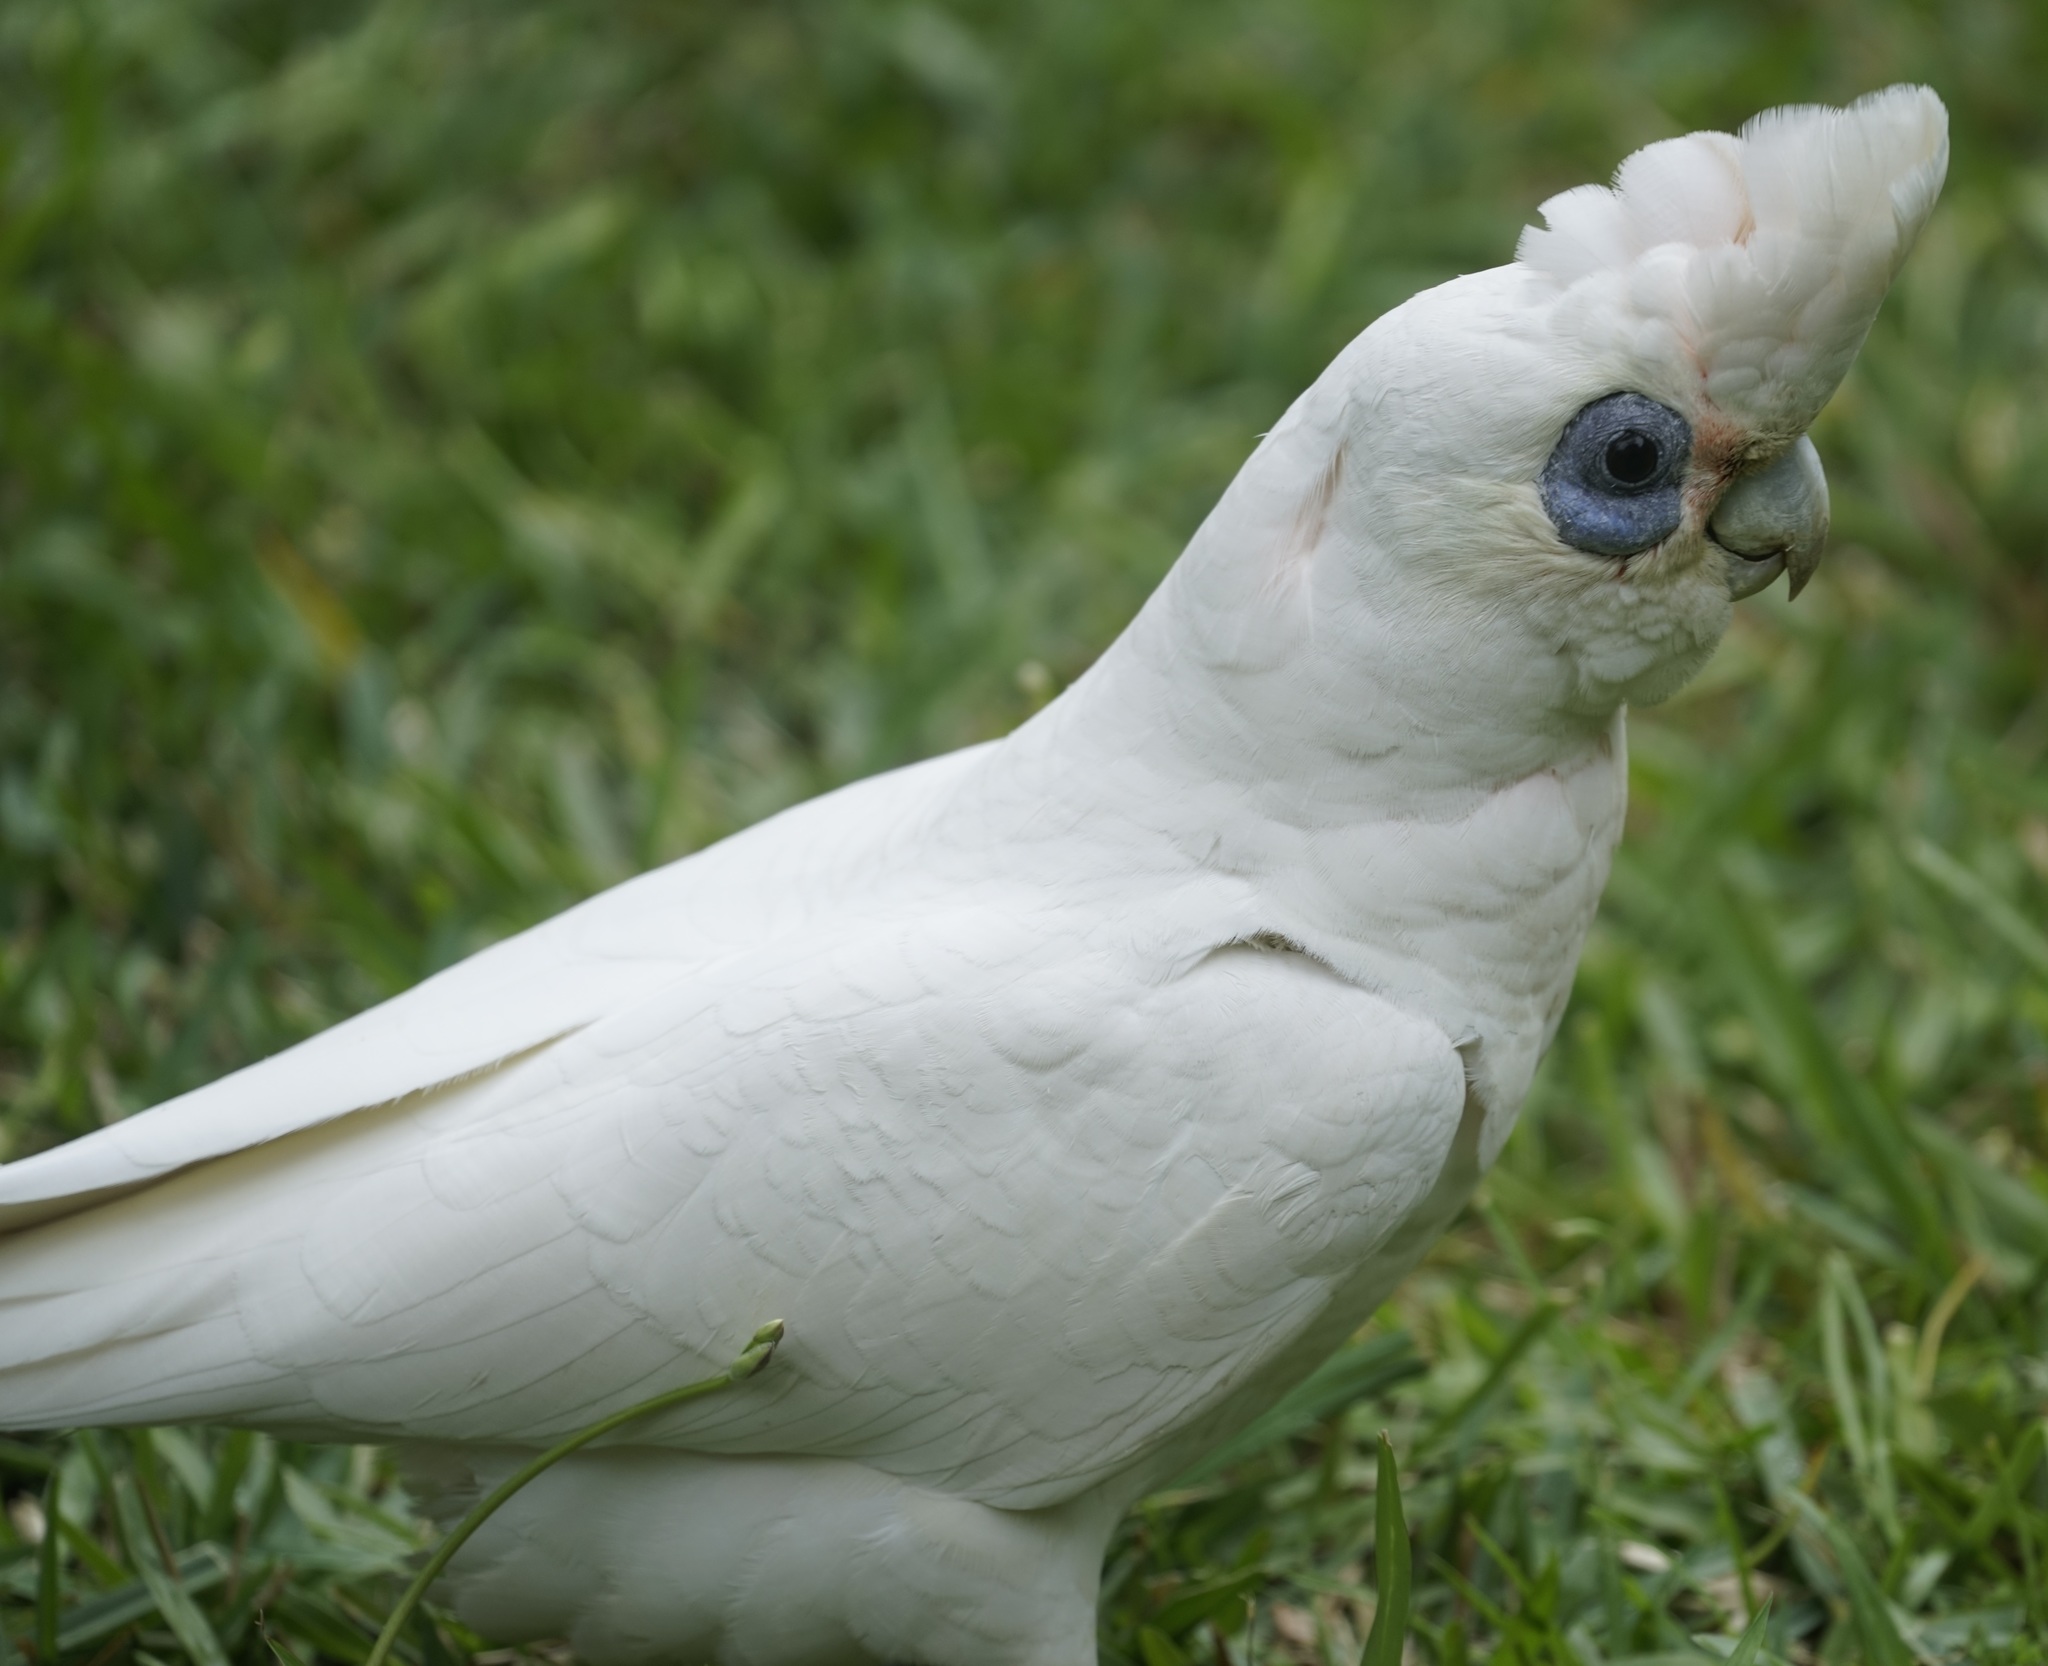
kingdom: Animalia
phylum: Chordata
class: Aves
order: Psittaciformes
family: Psittacidae
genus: Cacatua
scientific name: Cacatua sanguinea
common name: Little corella
